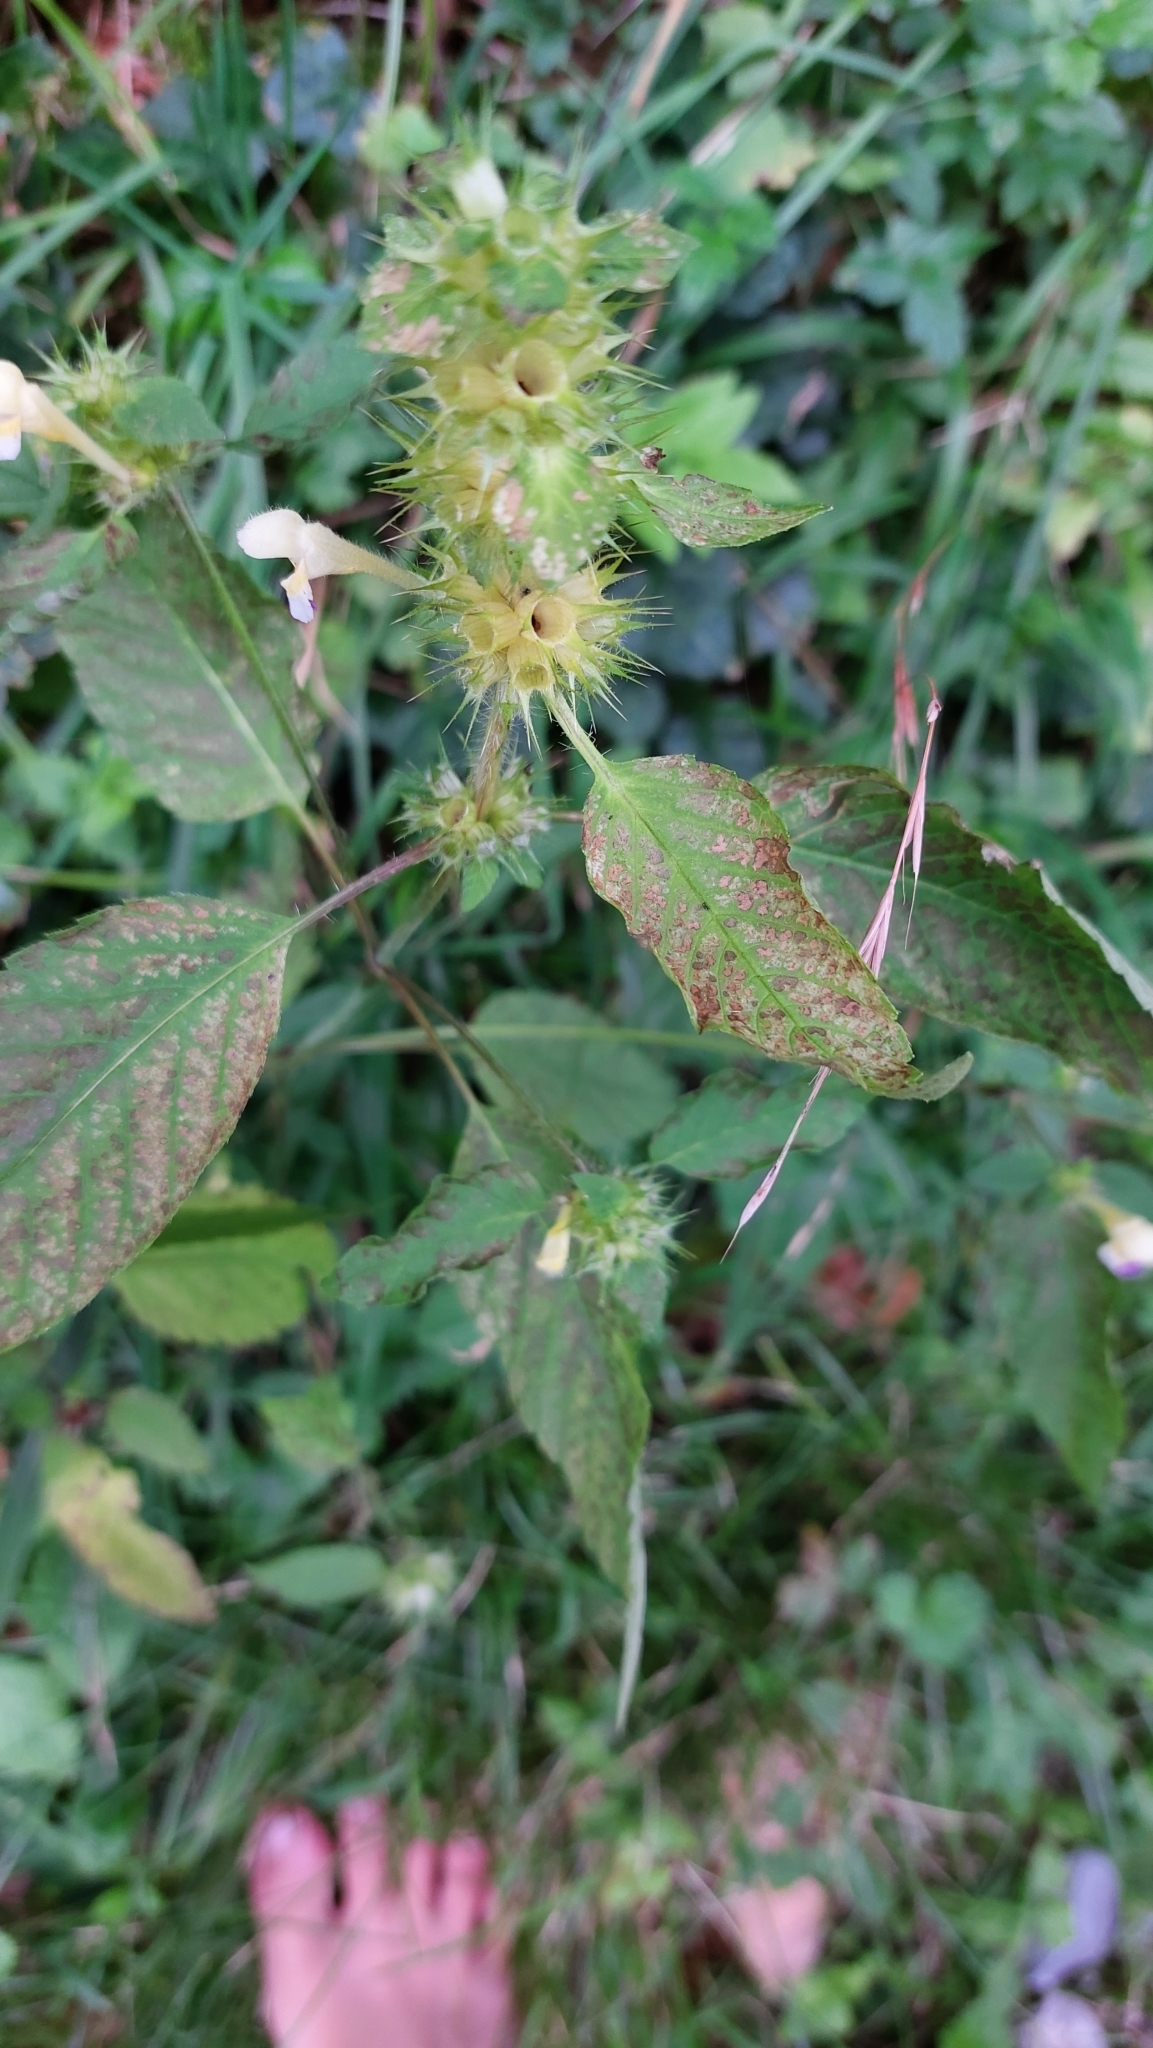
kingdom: Plantae
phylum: Tracheophyta
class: Magnoliopsida
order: Lamiales
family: Lamiaceae
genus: Galeopsis
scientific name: Galeopsis speciosa
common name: Large-flowered hemp-nettle
